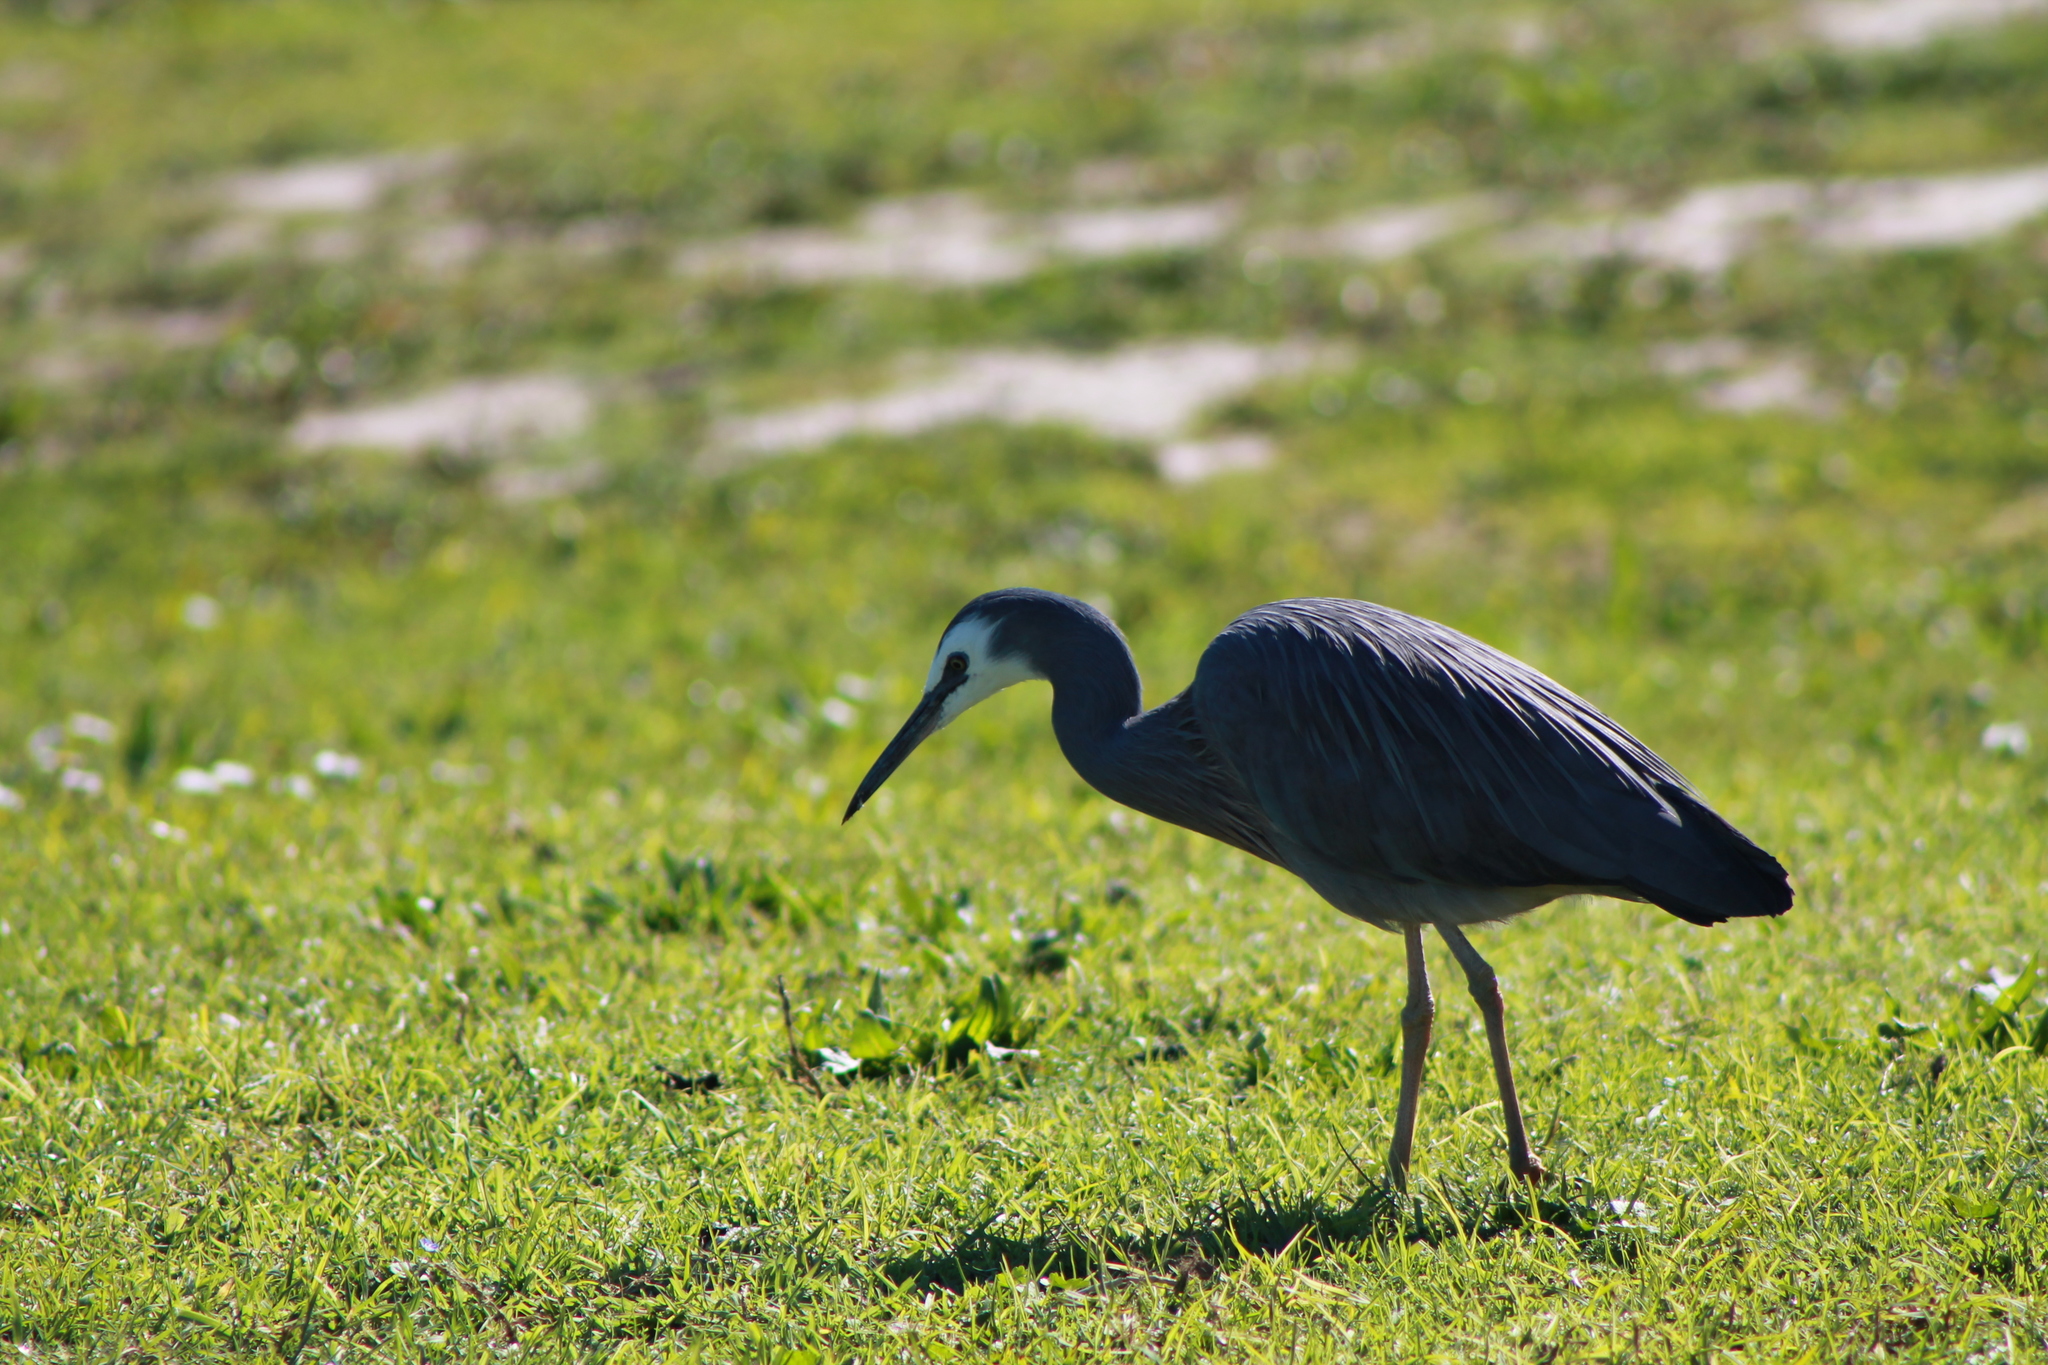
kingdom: Animalia
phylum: Chordata
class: Aves
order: Pelecaniformes
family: Ardeidae
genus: Egretta
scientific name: Egretta novaehollandiae
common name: White-faced heron
